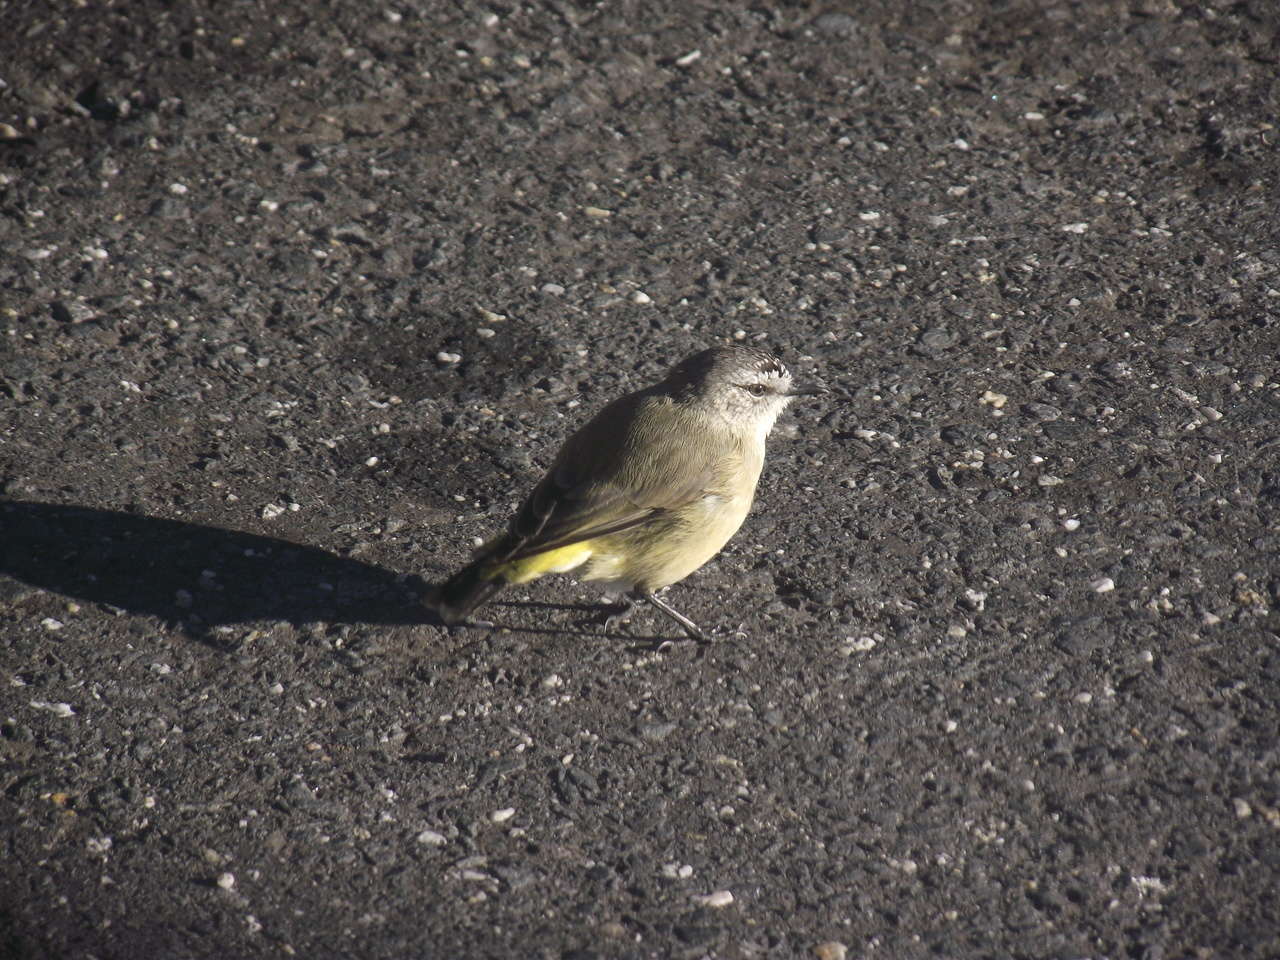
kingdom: Animalia
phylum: Chordata
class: Aves
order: Passeriformes
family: Acanthizidae
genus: Acanthiza
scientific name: Acanthiza chrysorrhoa
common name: Yellow-rumped thornbill
